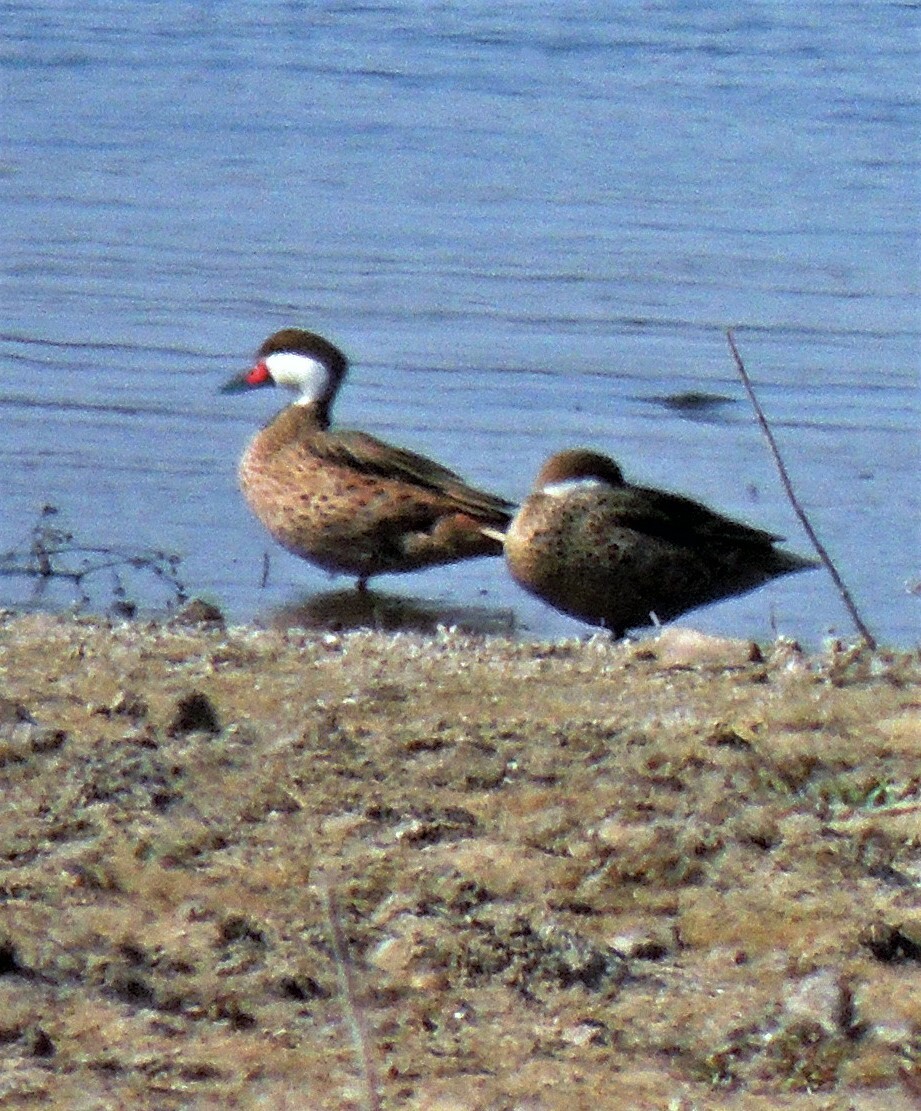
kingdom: Animalia
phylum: Chordata
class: Aves
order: Anseriformes
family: Anatidae
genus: Anas
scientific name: Anas bahamensis
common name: White-cheeked pintail
